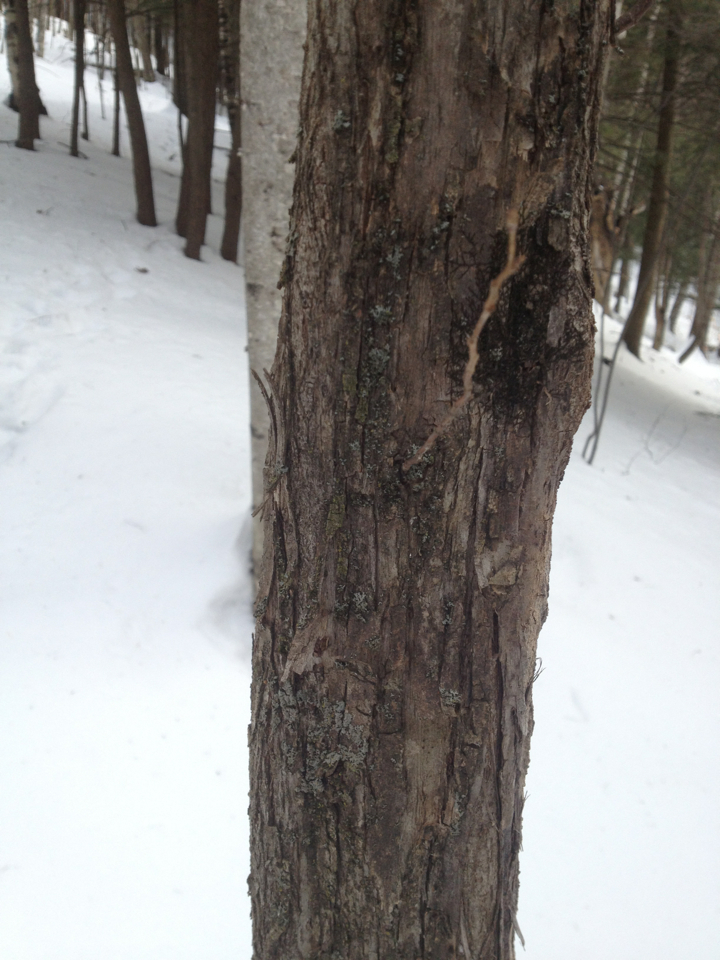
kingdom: Plantae
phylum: Tracheophyta
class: Magnoliopsida
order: Fagales
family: Betulaceae
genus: Ostrya
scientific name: Ostrya virginiana
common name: Ironwood
